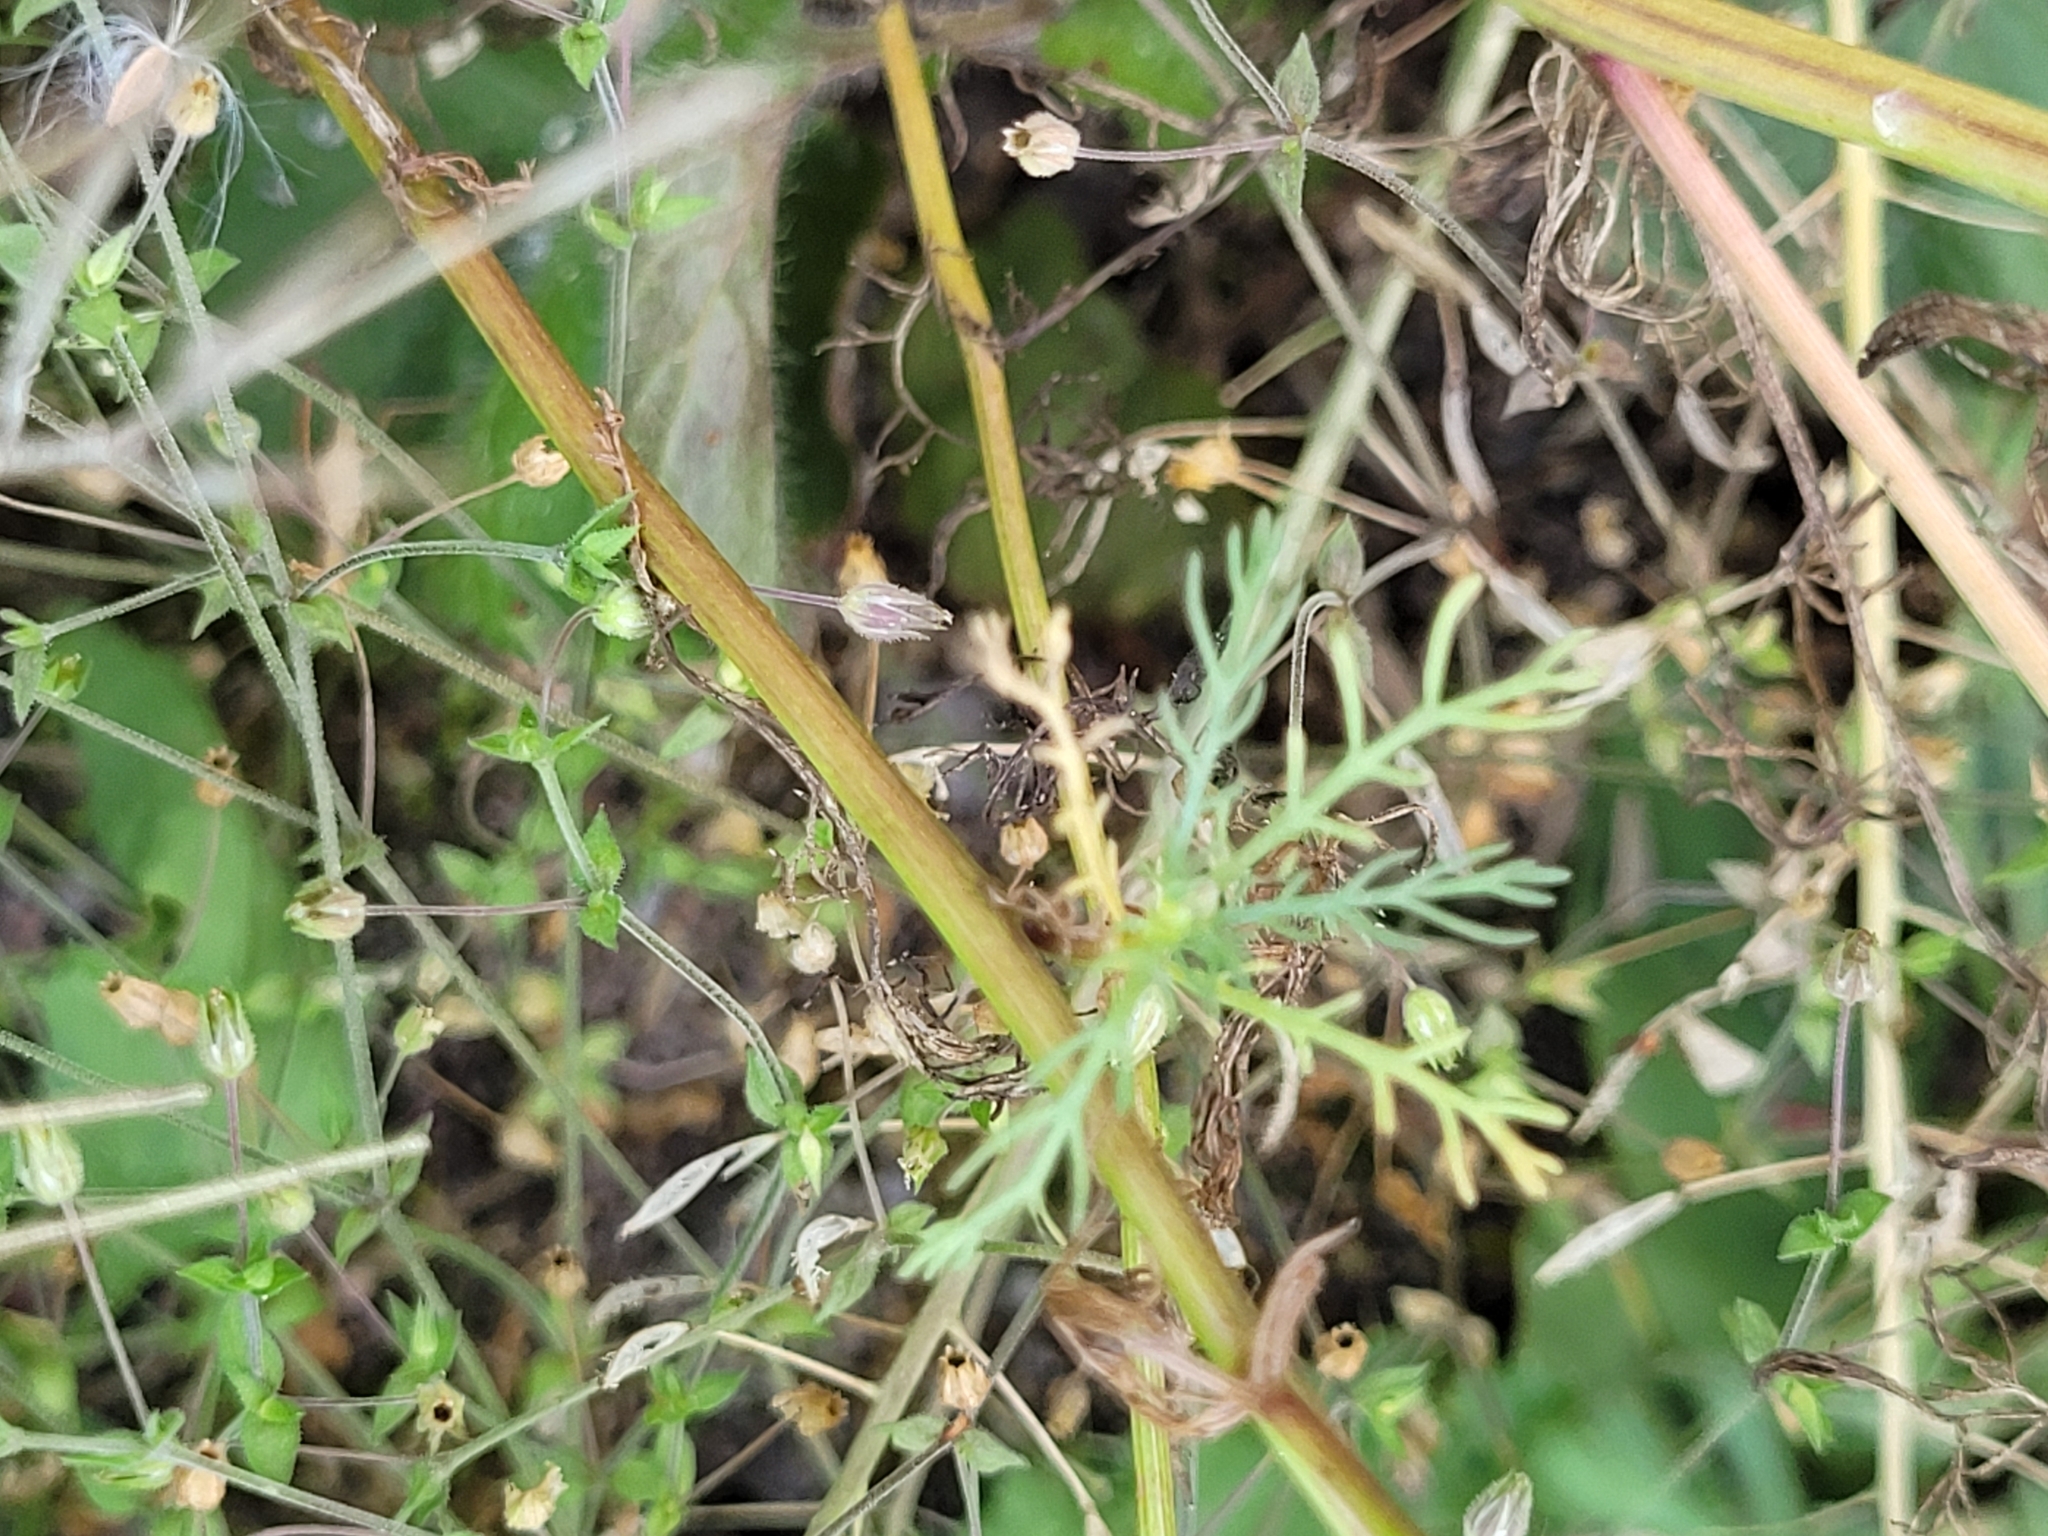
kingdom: Plantae
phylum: Tracheophyta
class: Magnoliopsida
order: Asterales
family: Asteraceae
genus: Matricaria
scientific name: Matricaria chamomilla
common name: Scented mayweed
